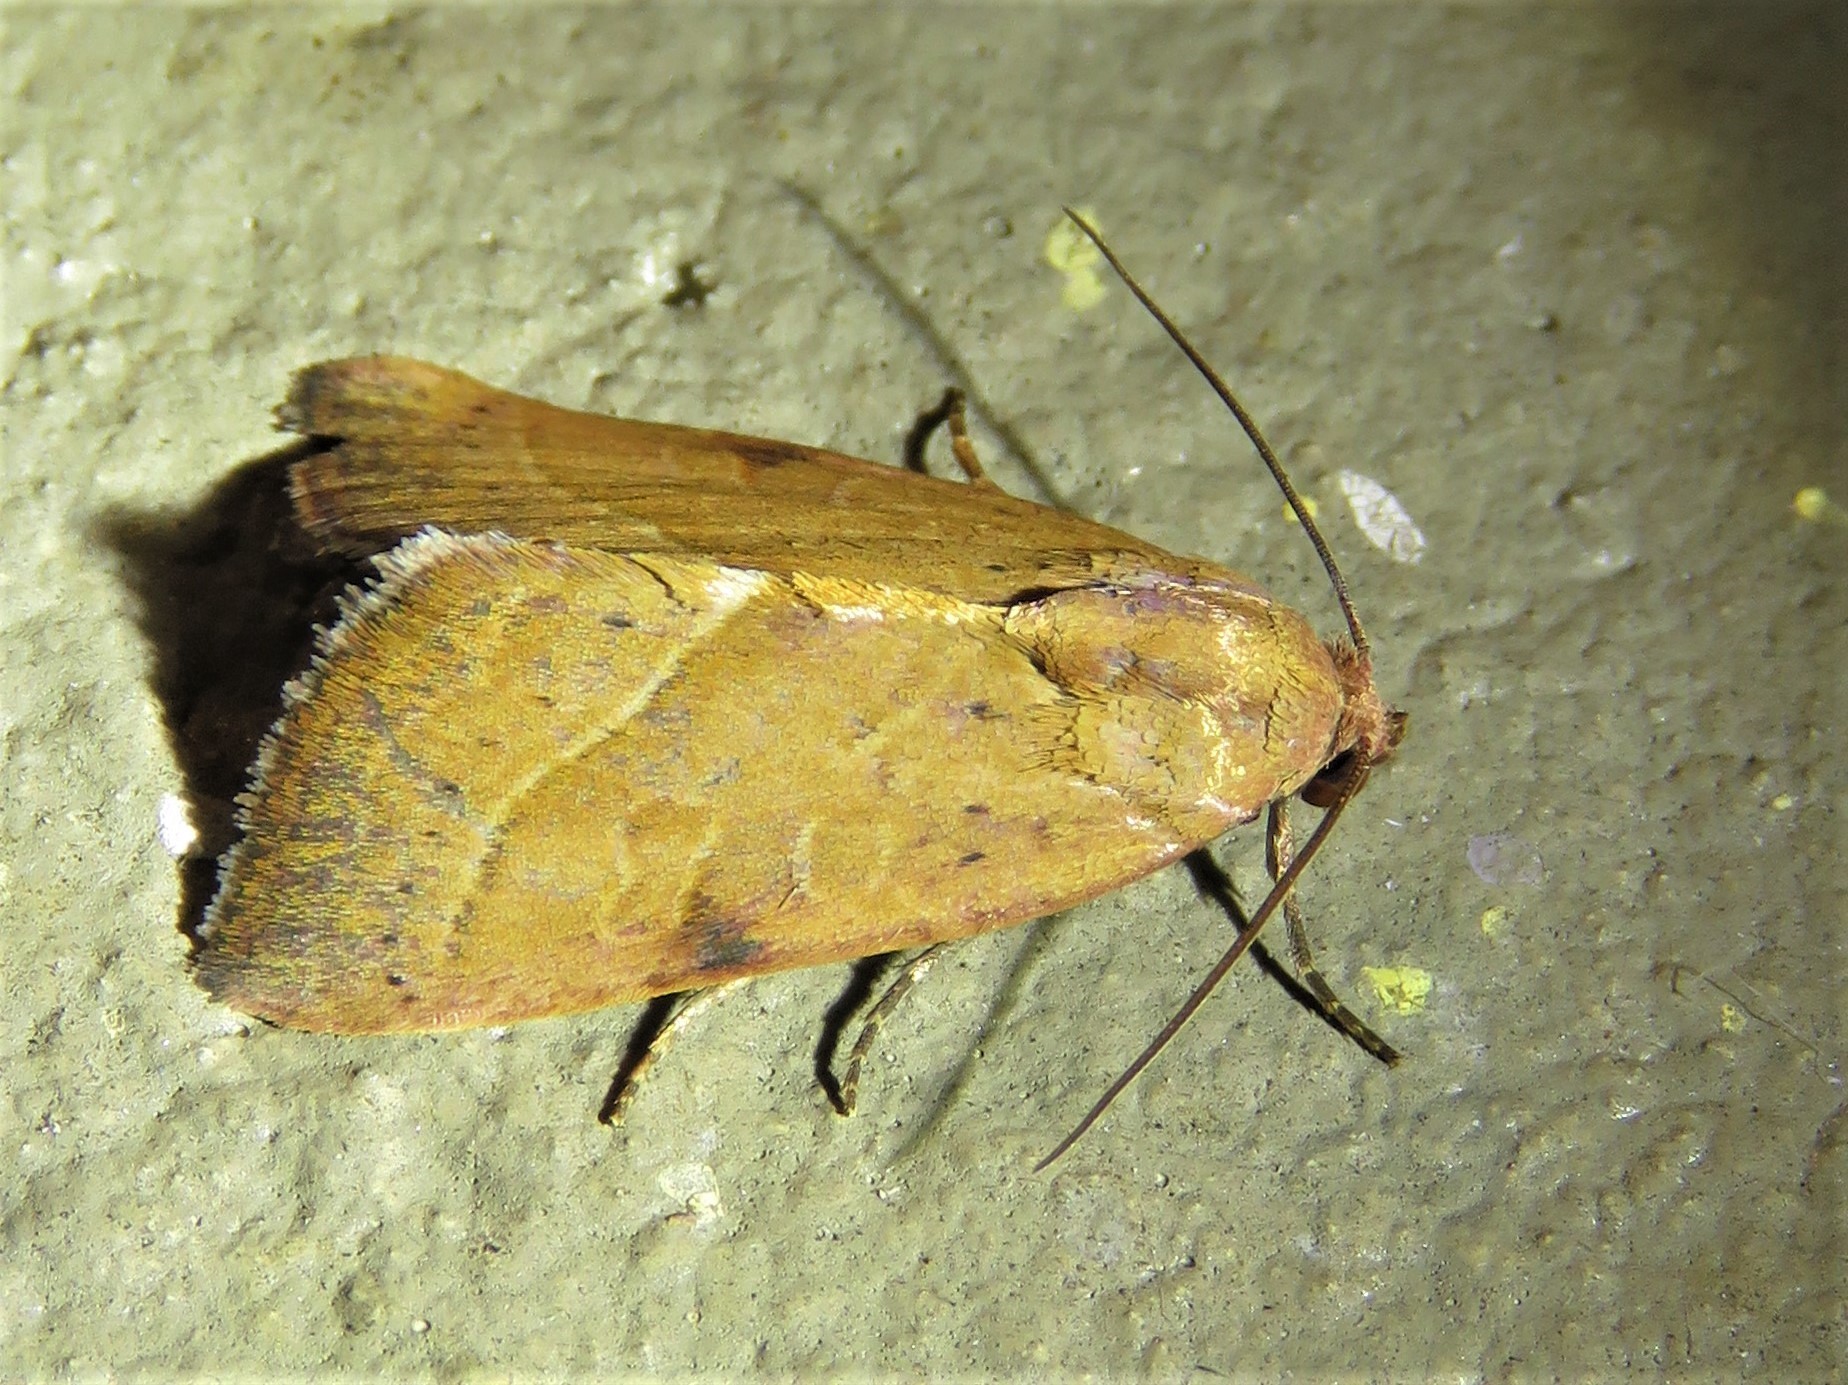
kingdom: Animalia
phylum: Arthropoda
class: Insecta
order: Lepidoptera
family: Noctuidae
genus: Galgula
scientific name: Galgula partita
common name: Wedgeling
